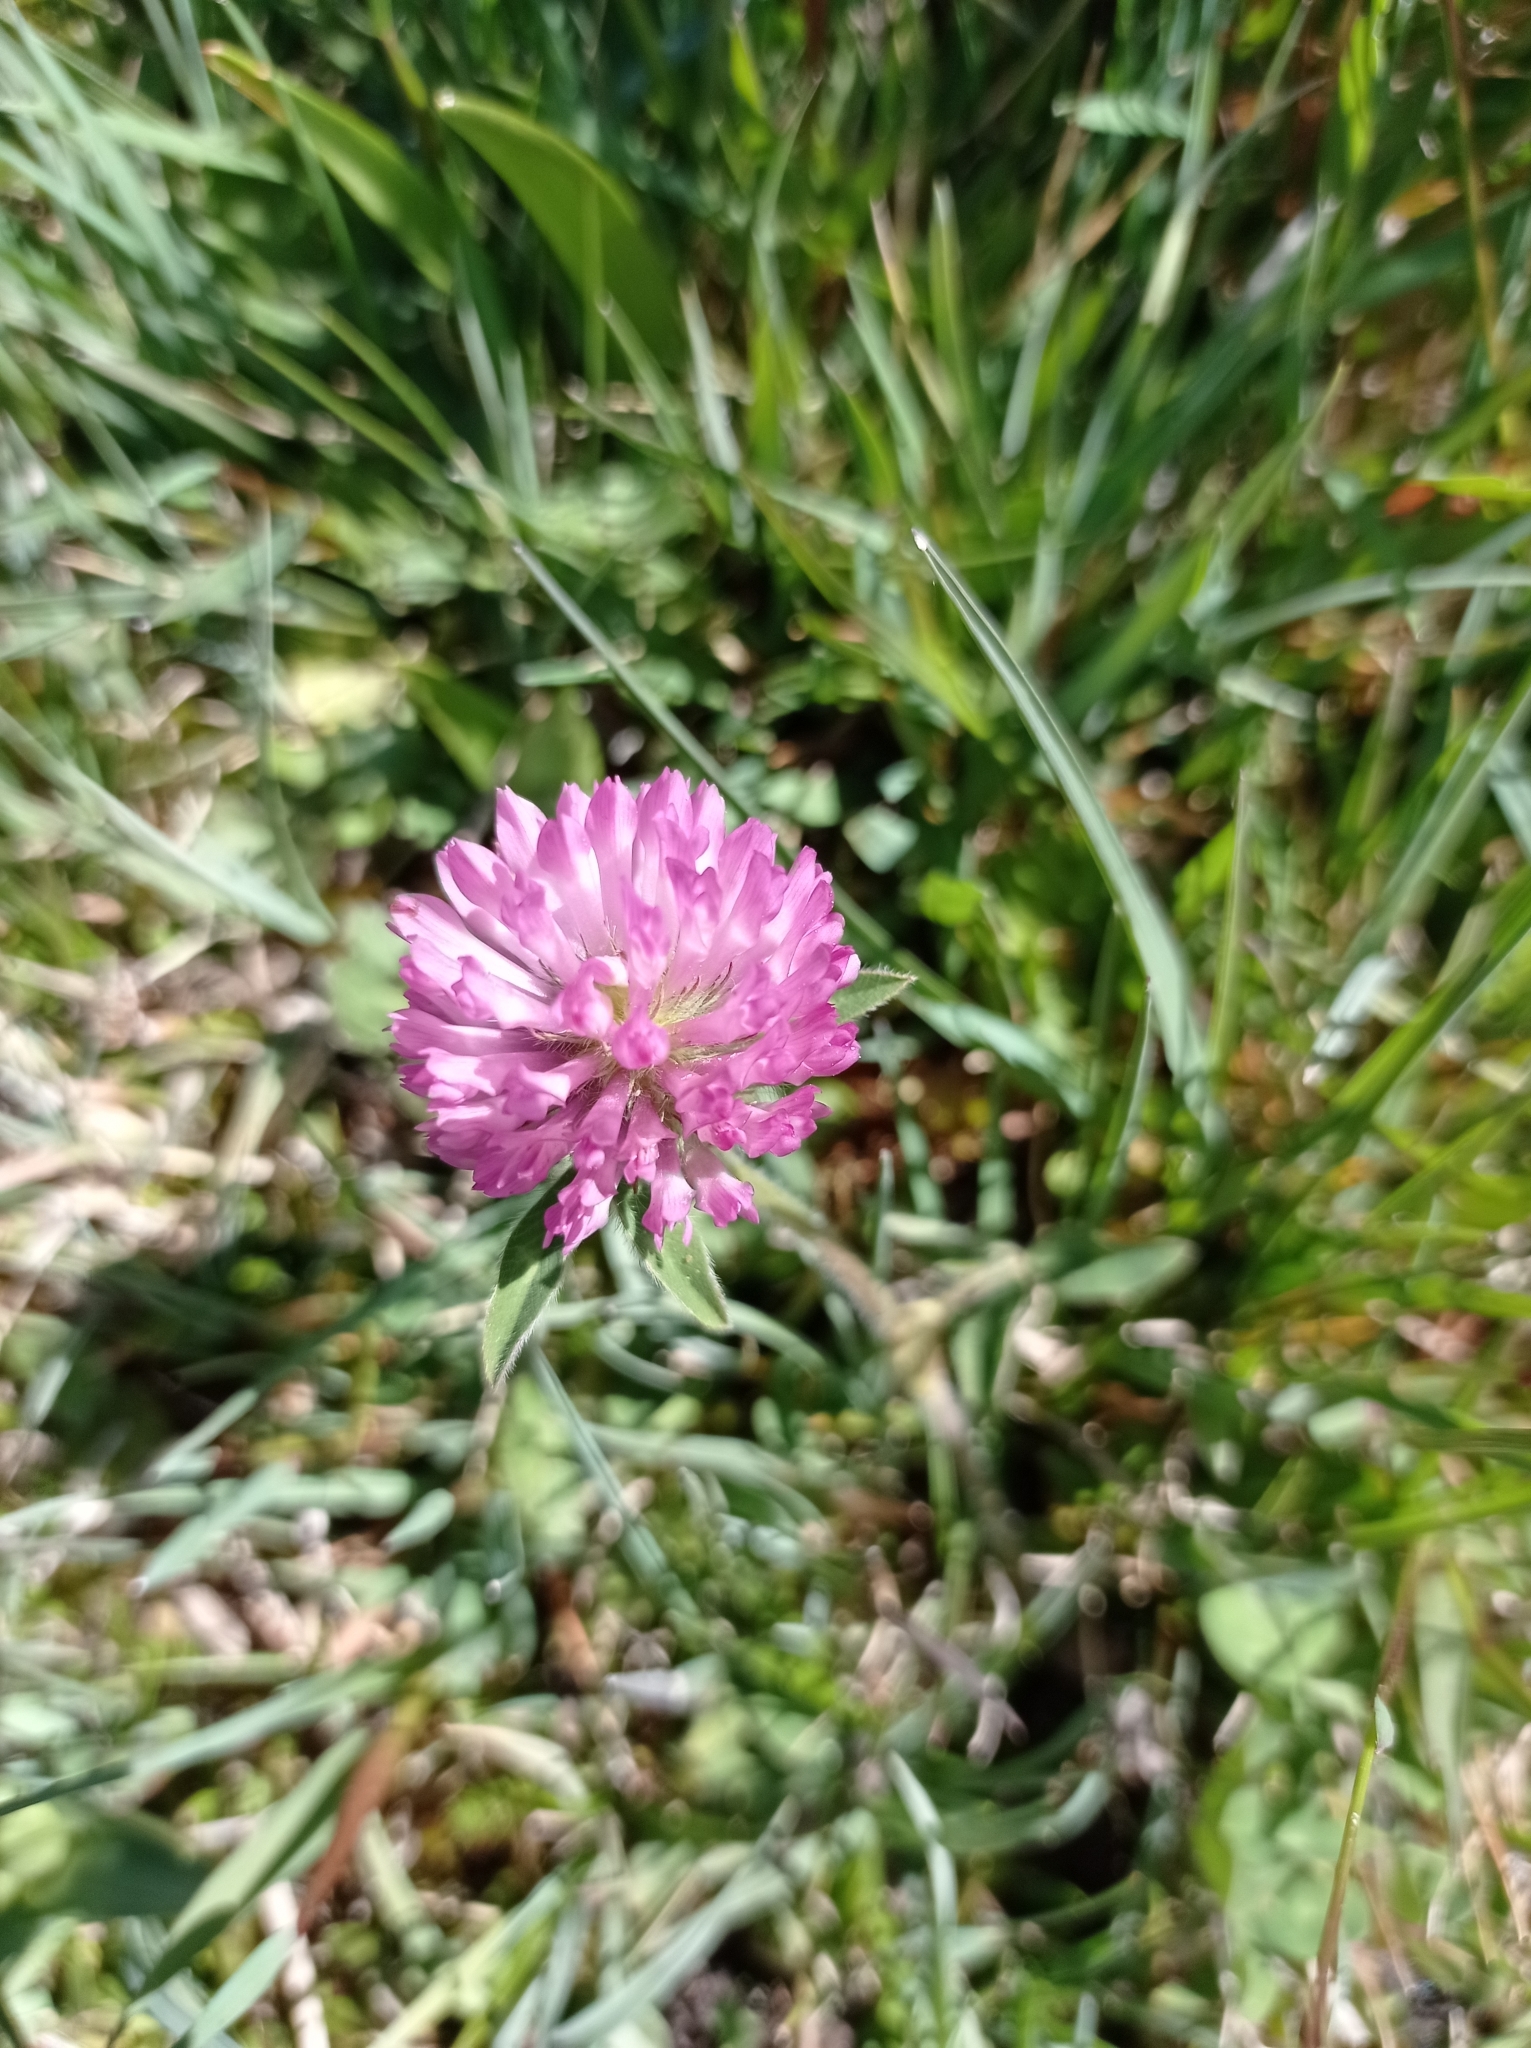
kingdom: Plantae
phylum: Tracheophyta
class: Magnoliopsida
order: Fabales
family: Fabaceae
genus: Trifolium
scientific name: Trifolium pratense
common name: Red clover
